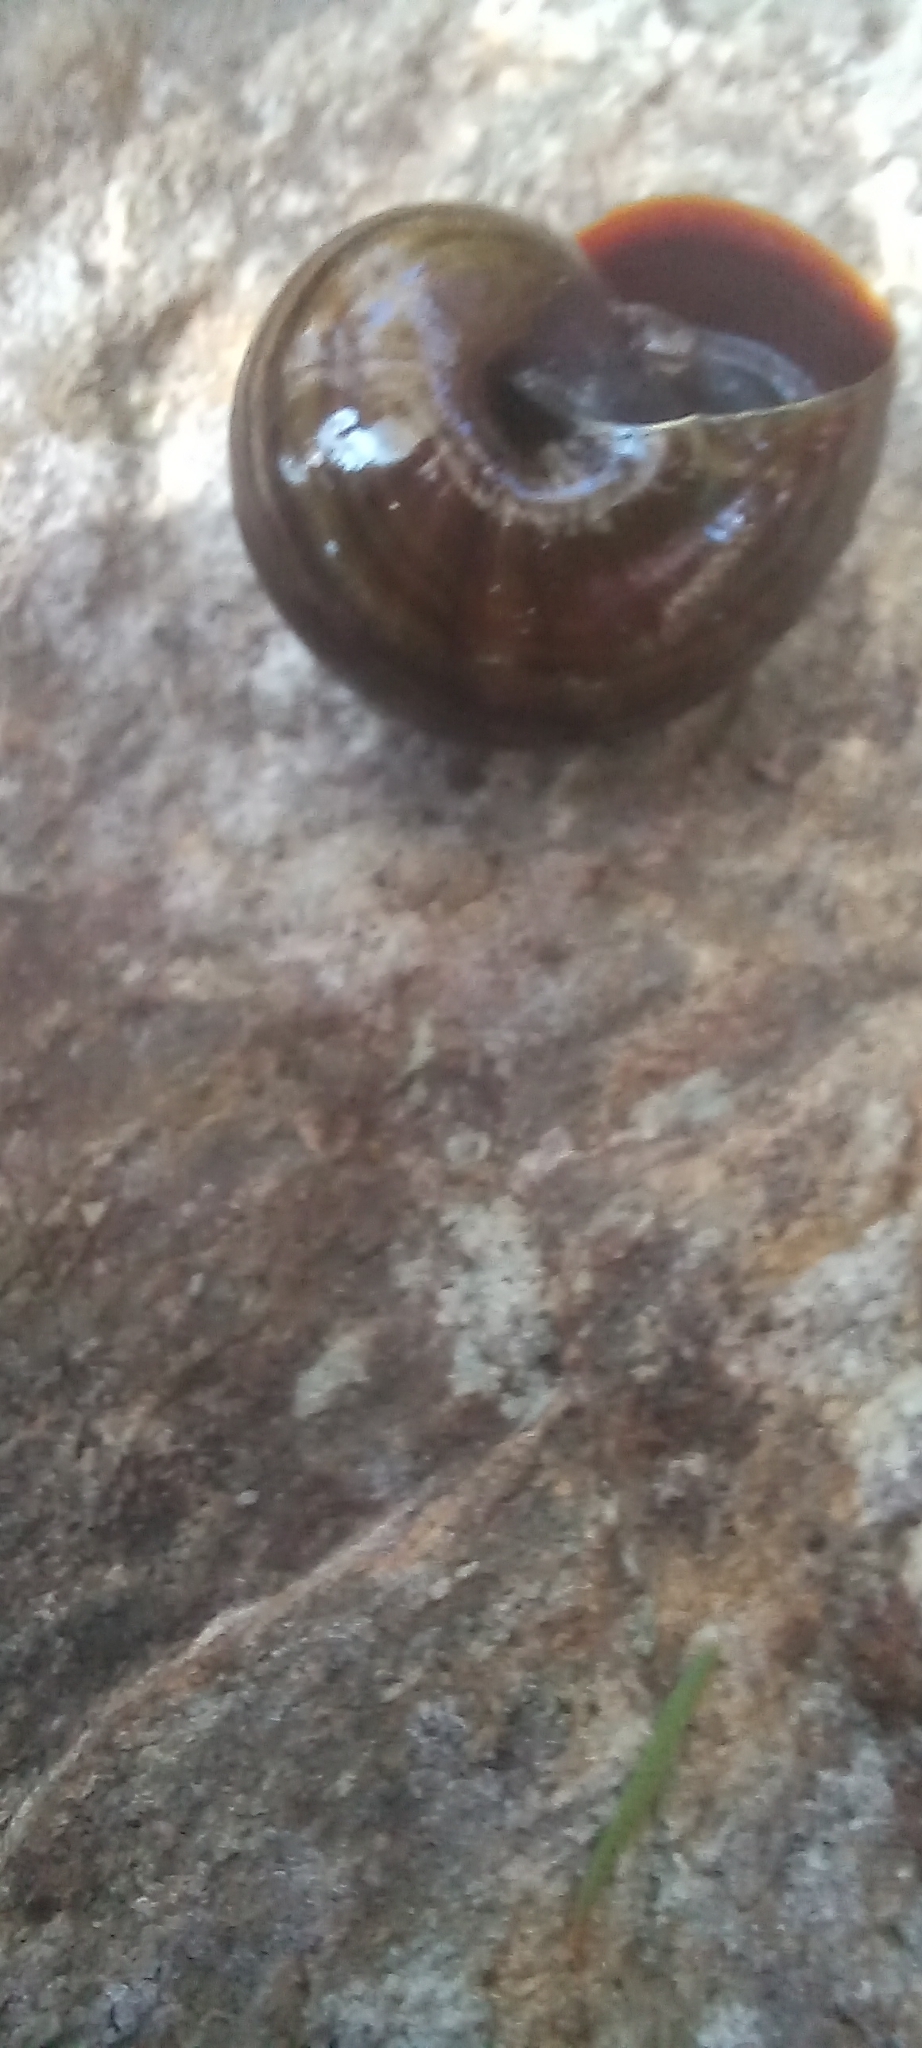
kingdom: Animalia
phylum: Mollusca
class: Gastropoda
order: Stylommatophora
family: Rhytididae
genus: Powelliphanta
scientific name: Powelliphanta hochstetteri
